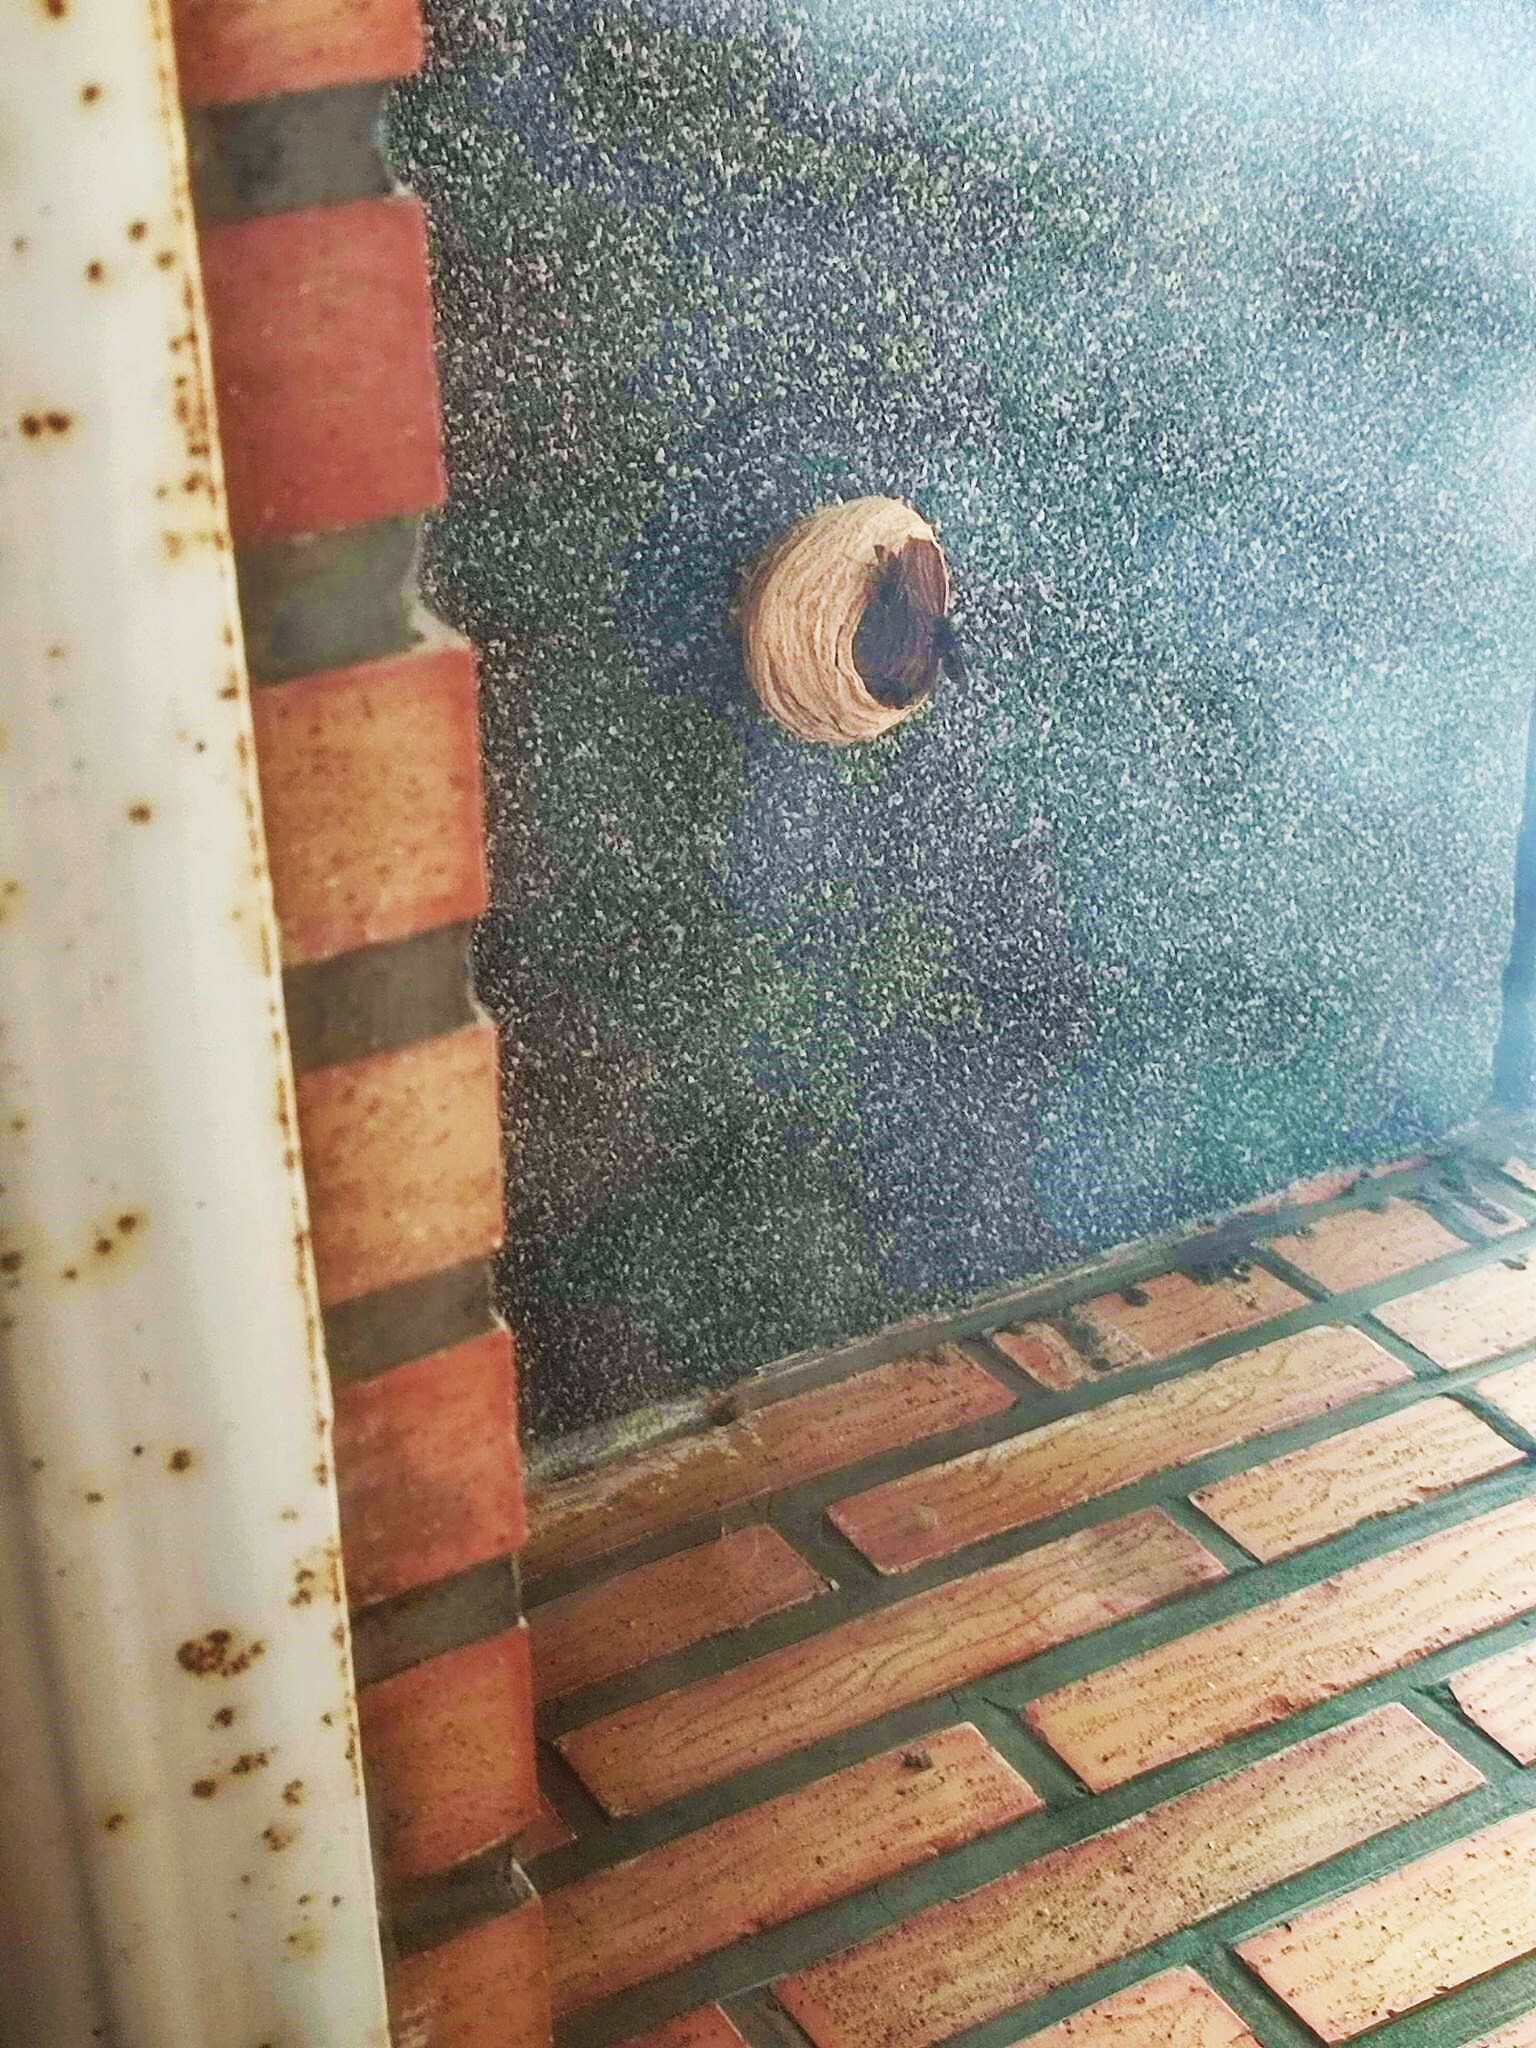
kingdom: Animalia
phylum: Arthropoda
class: Insecta
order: Hymenoptera
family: Vespidae
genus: Vespa
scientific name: Vespa velutina
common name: Asian hornet
